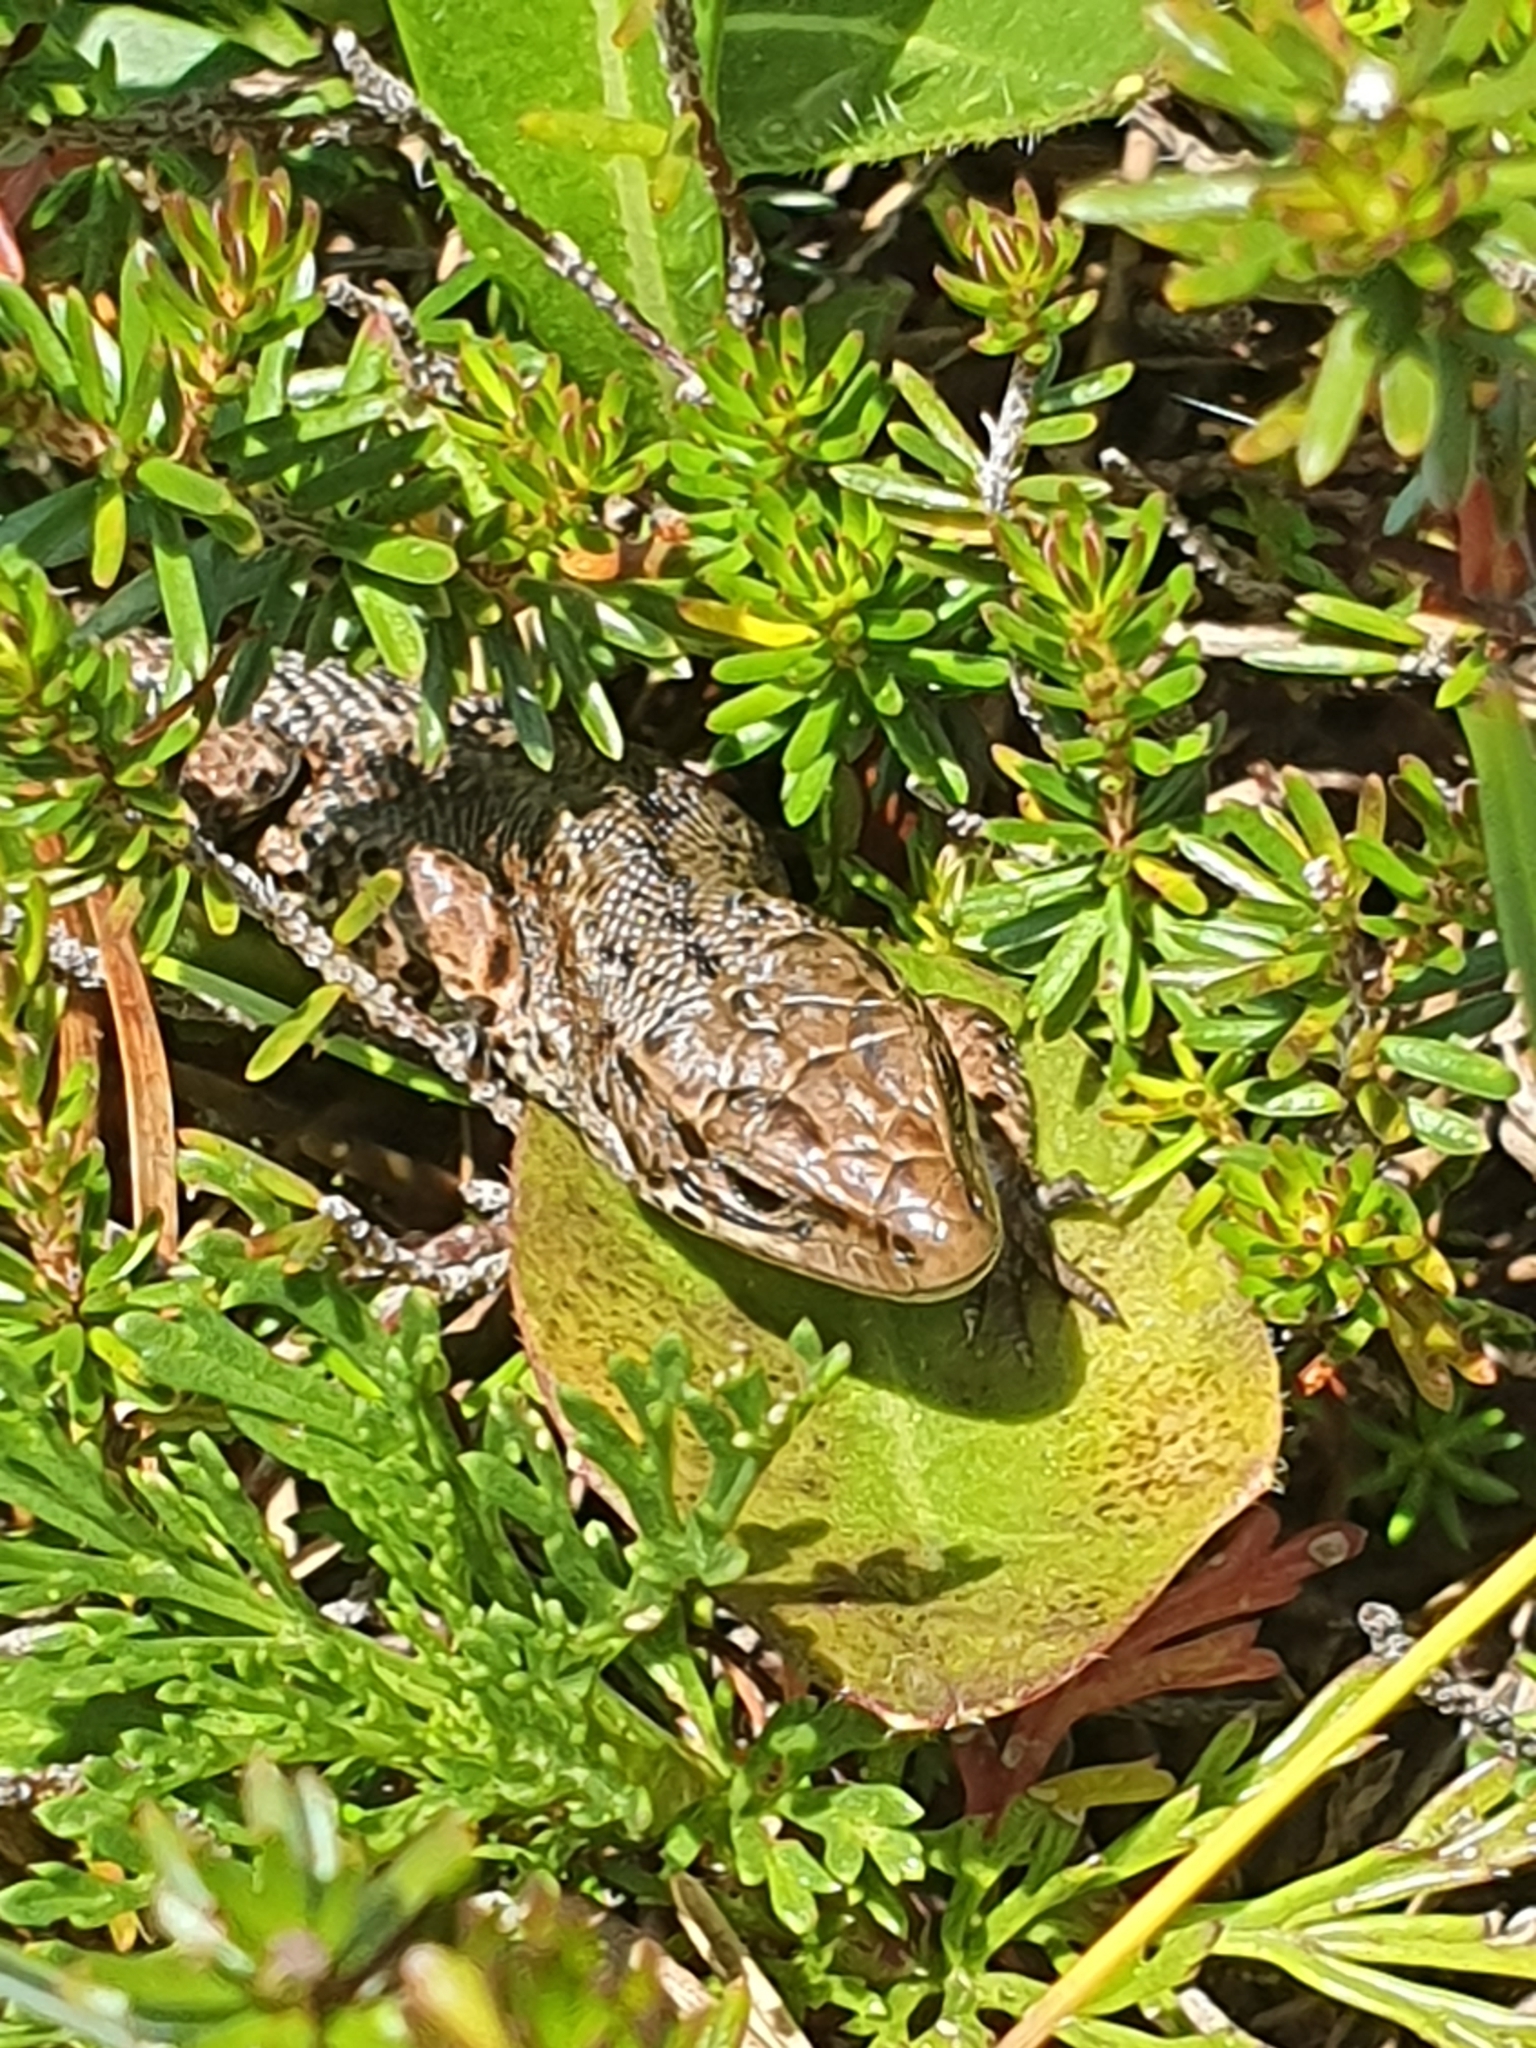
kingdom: Animalia
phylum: Chordata
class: Squamata
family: Lacertidae
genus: Zootoca
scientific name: Zootoca vivipara
